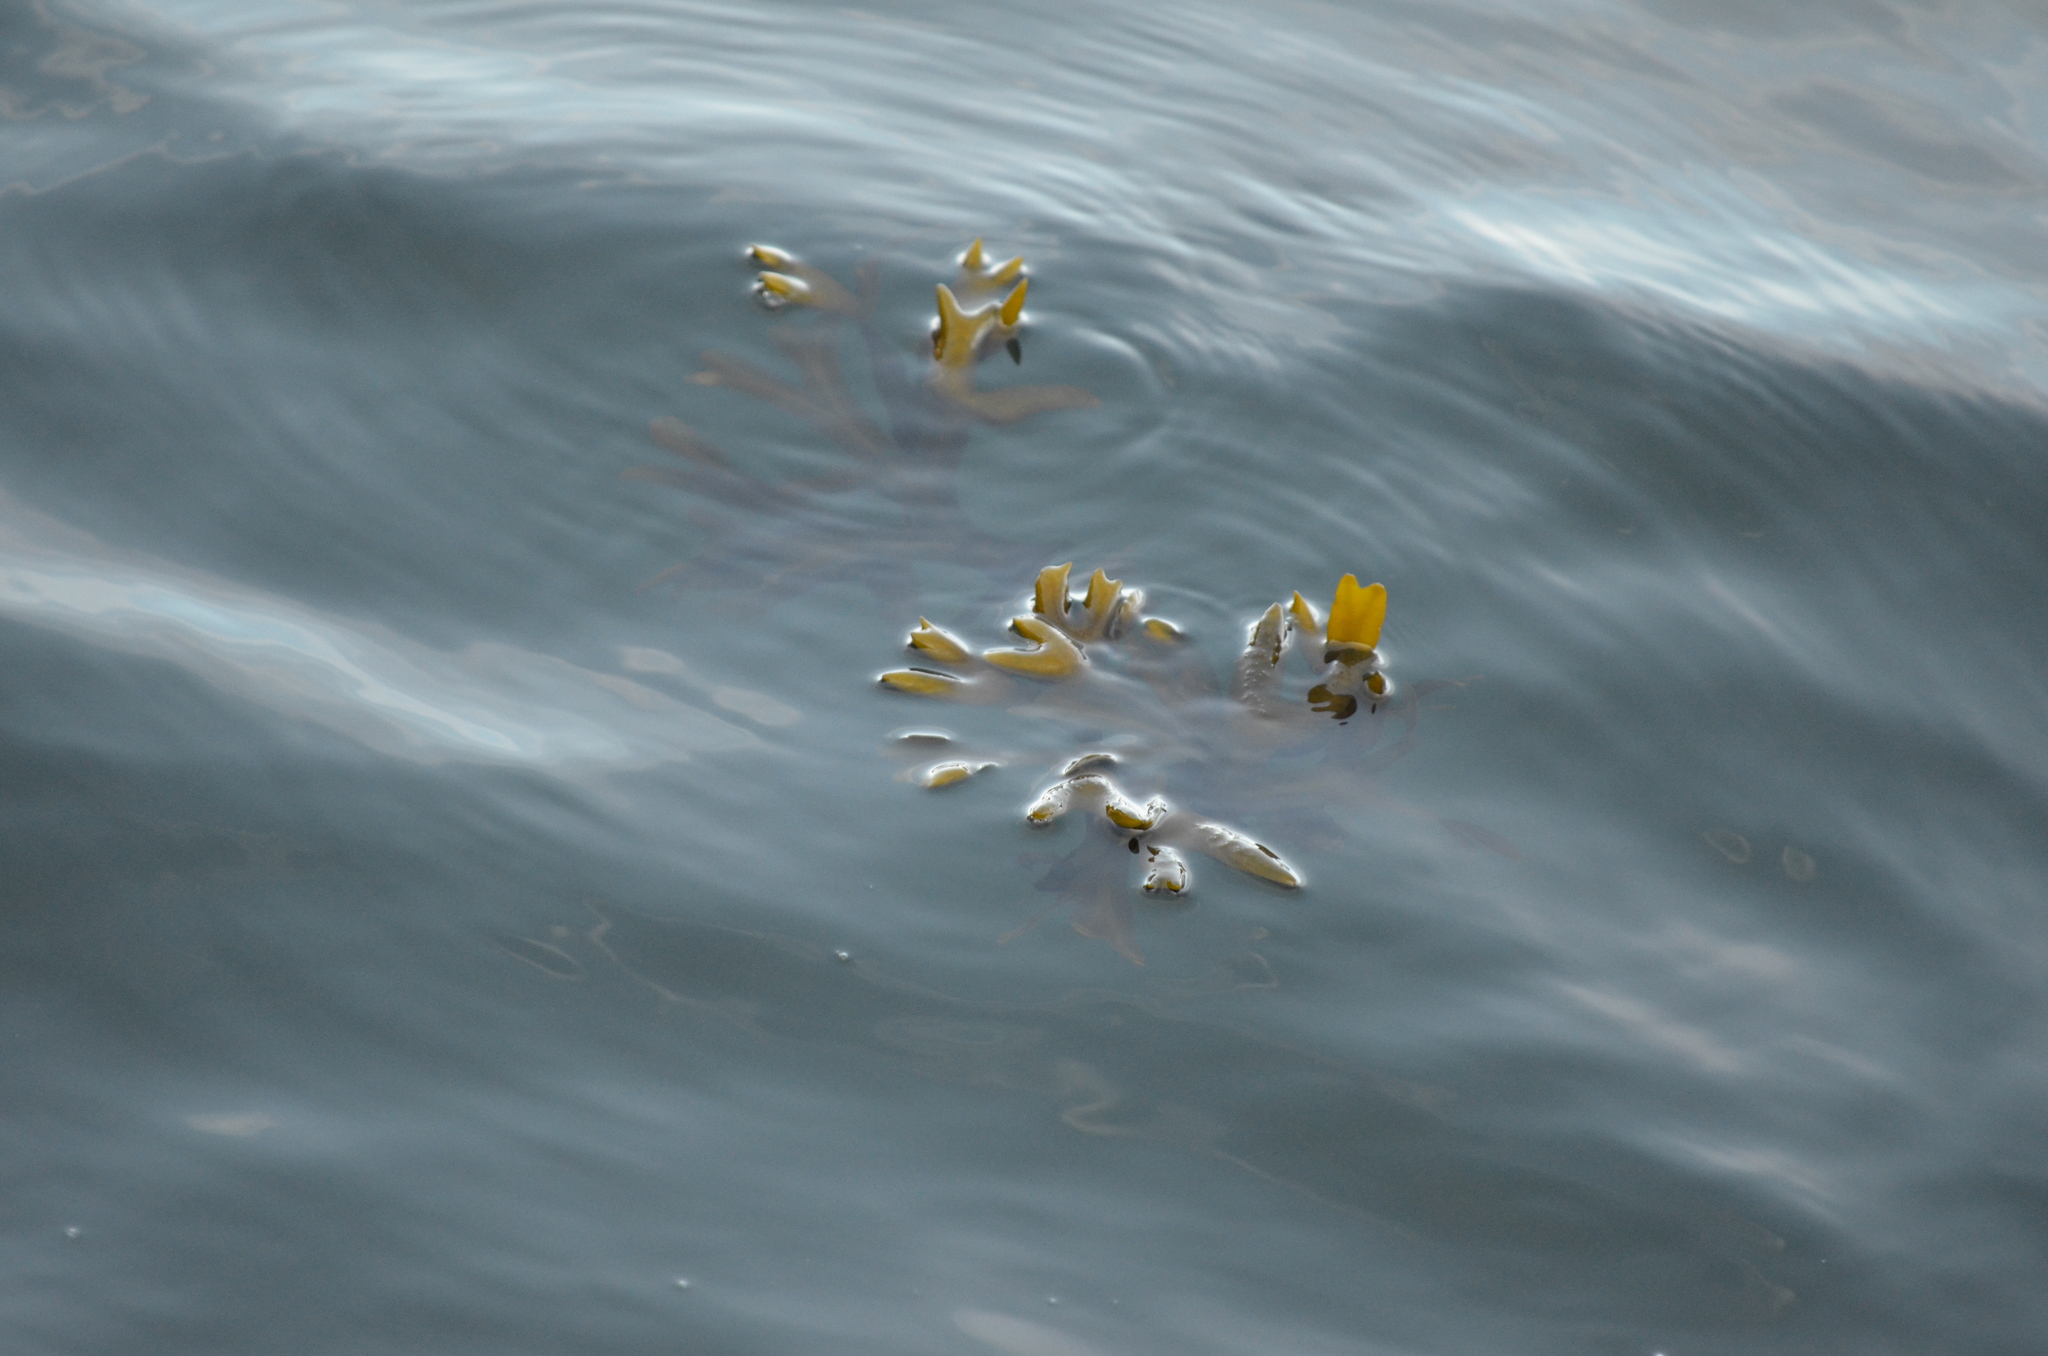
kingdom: Chromista
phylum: Ochrophyta
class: Phaeophyceae
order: Fucales
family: Fucaceae
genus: Fucus
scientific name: Fucus distichus
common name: Rockweed
